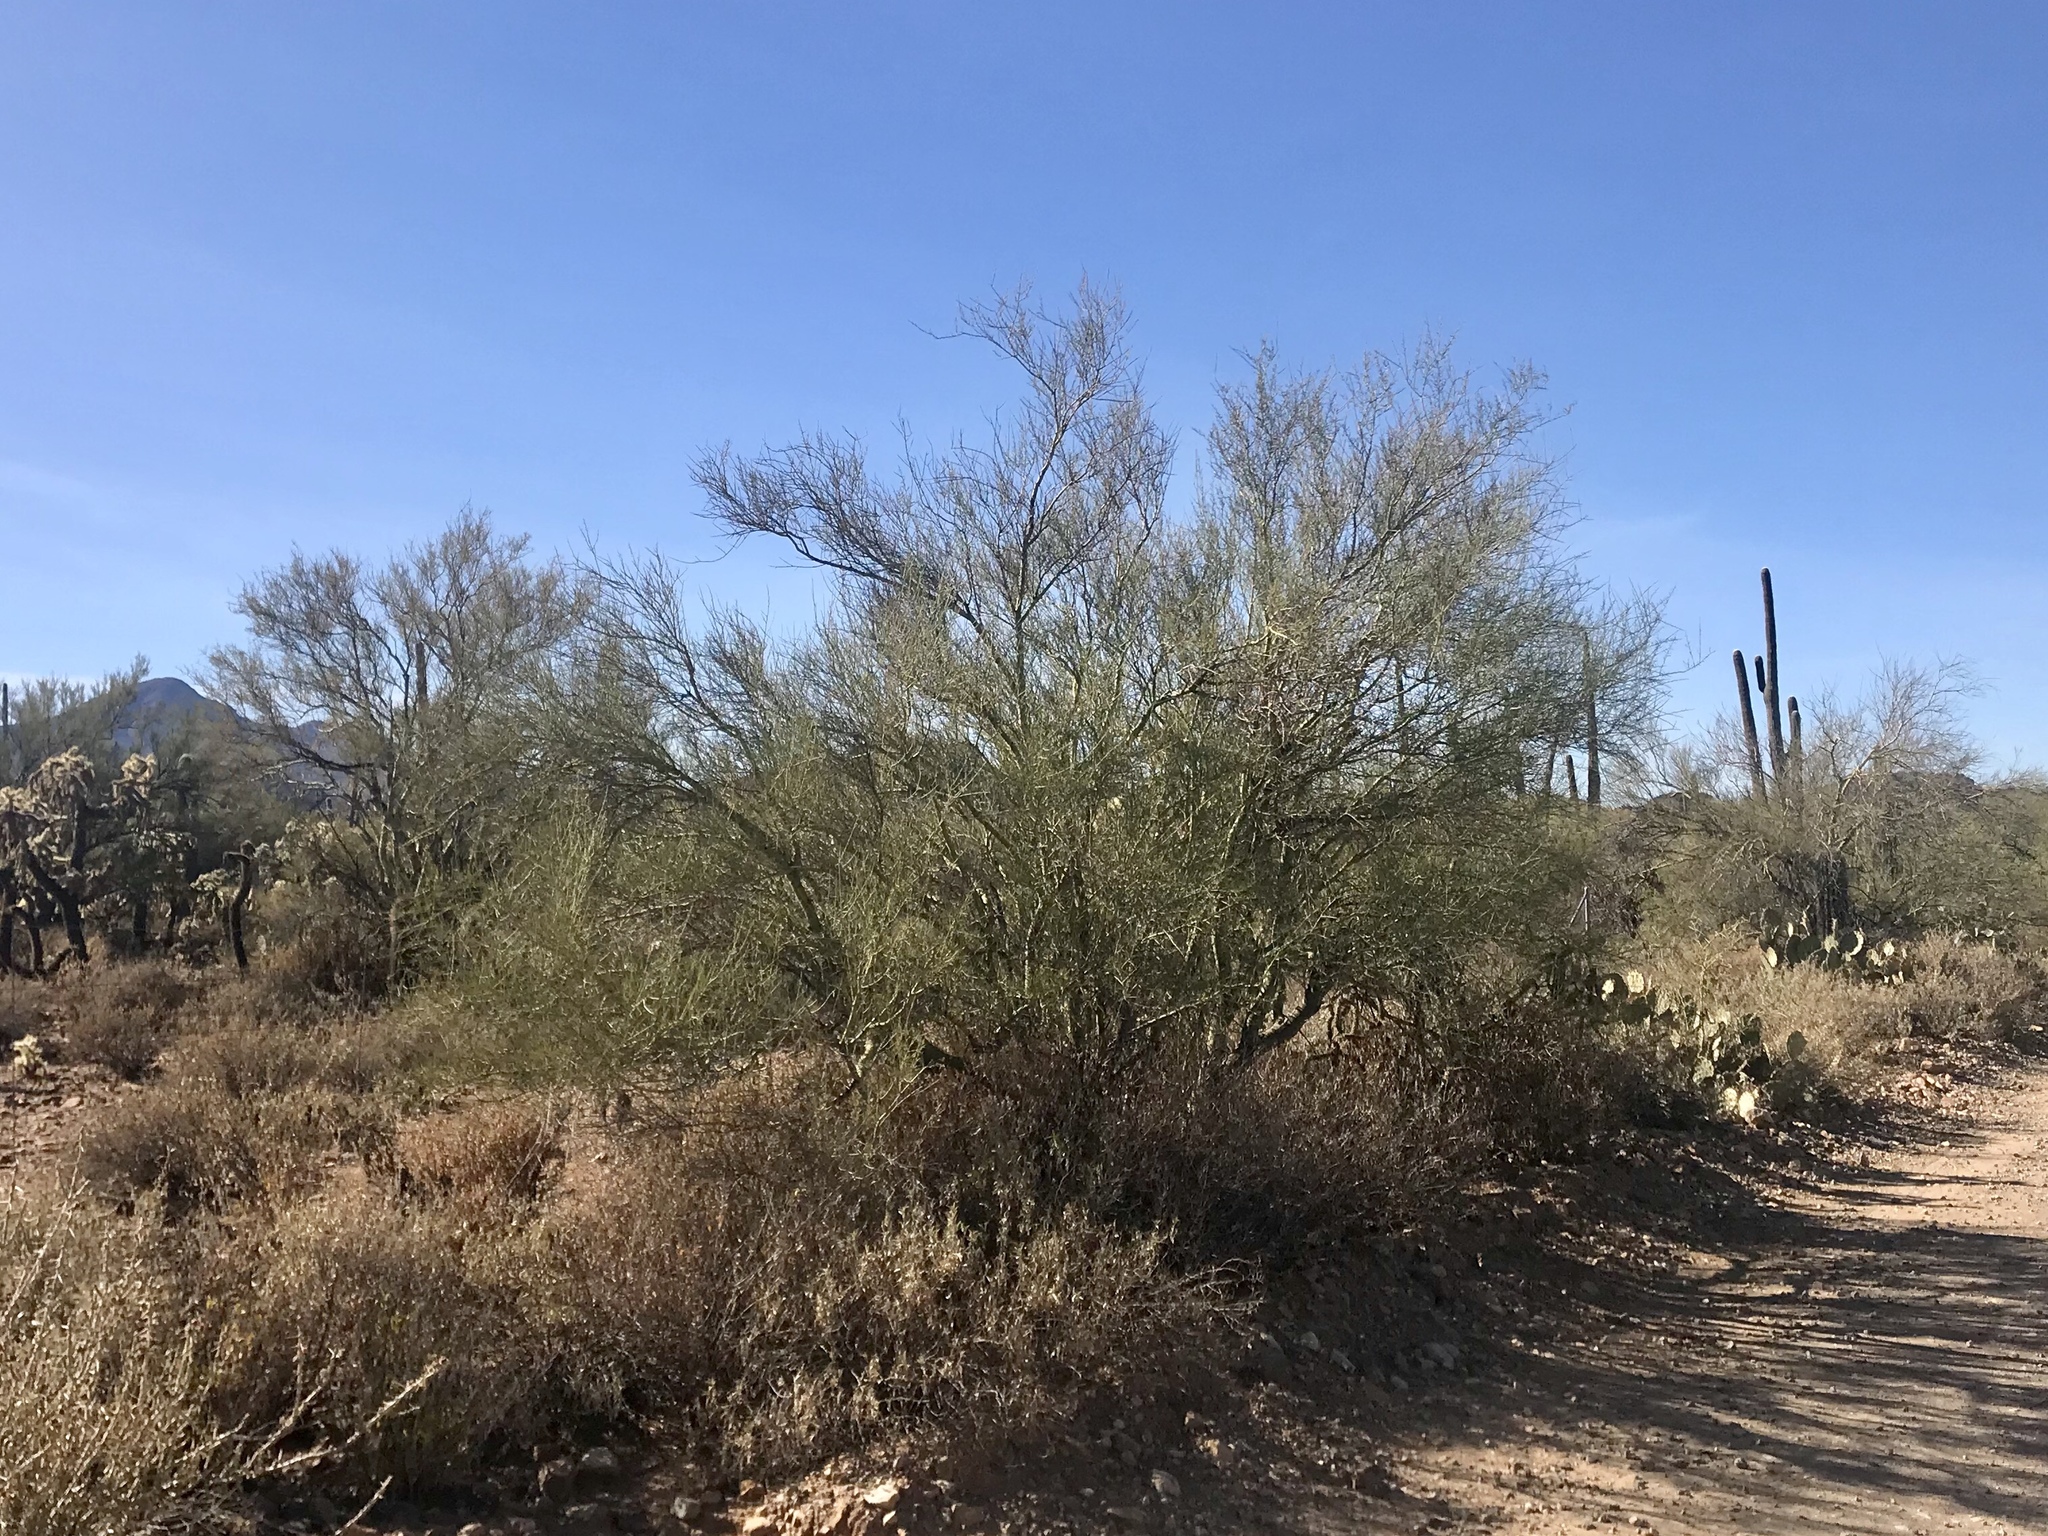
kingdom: Plantae
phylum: Tracheophyta
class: Magnoliopsida
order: Fabales
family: Fabaceae
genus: Parkinsonia
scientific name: Parkinsonia microphylla
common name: Yellow paloverde
